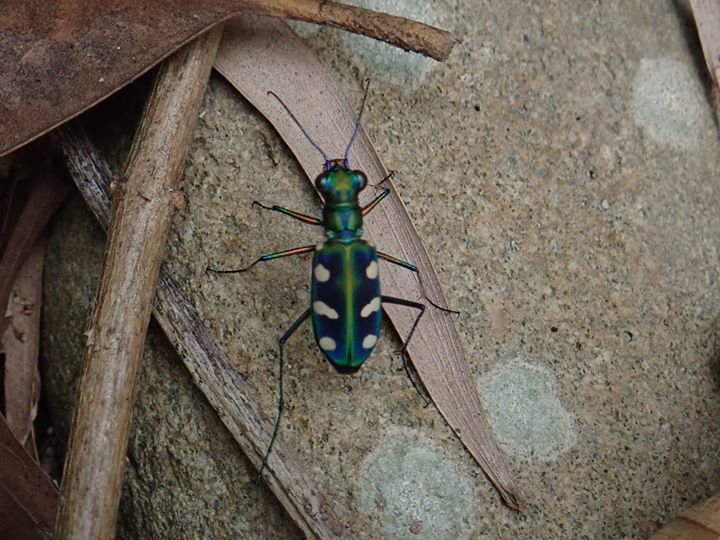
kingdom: Animalia
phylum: Arthropoda
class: Insecta
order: Coleoptera
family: Carabidae
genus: Cicindela
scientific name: Cicindela batesi
